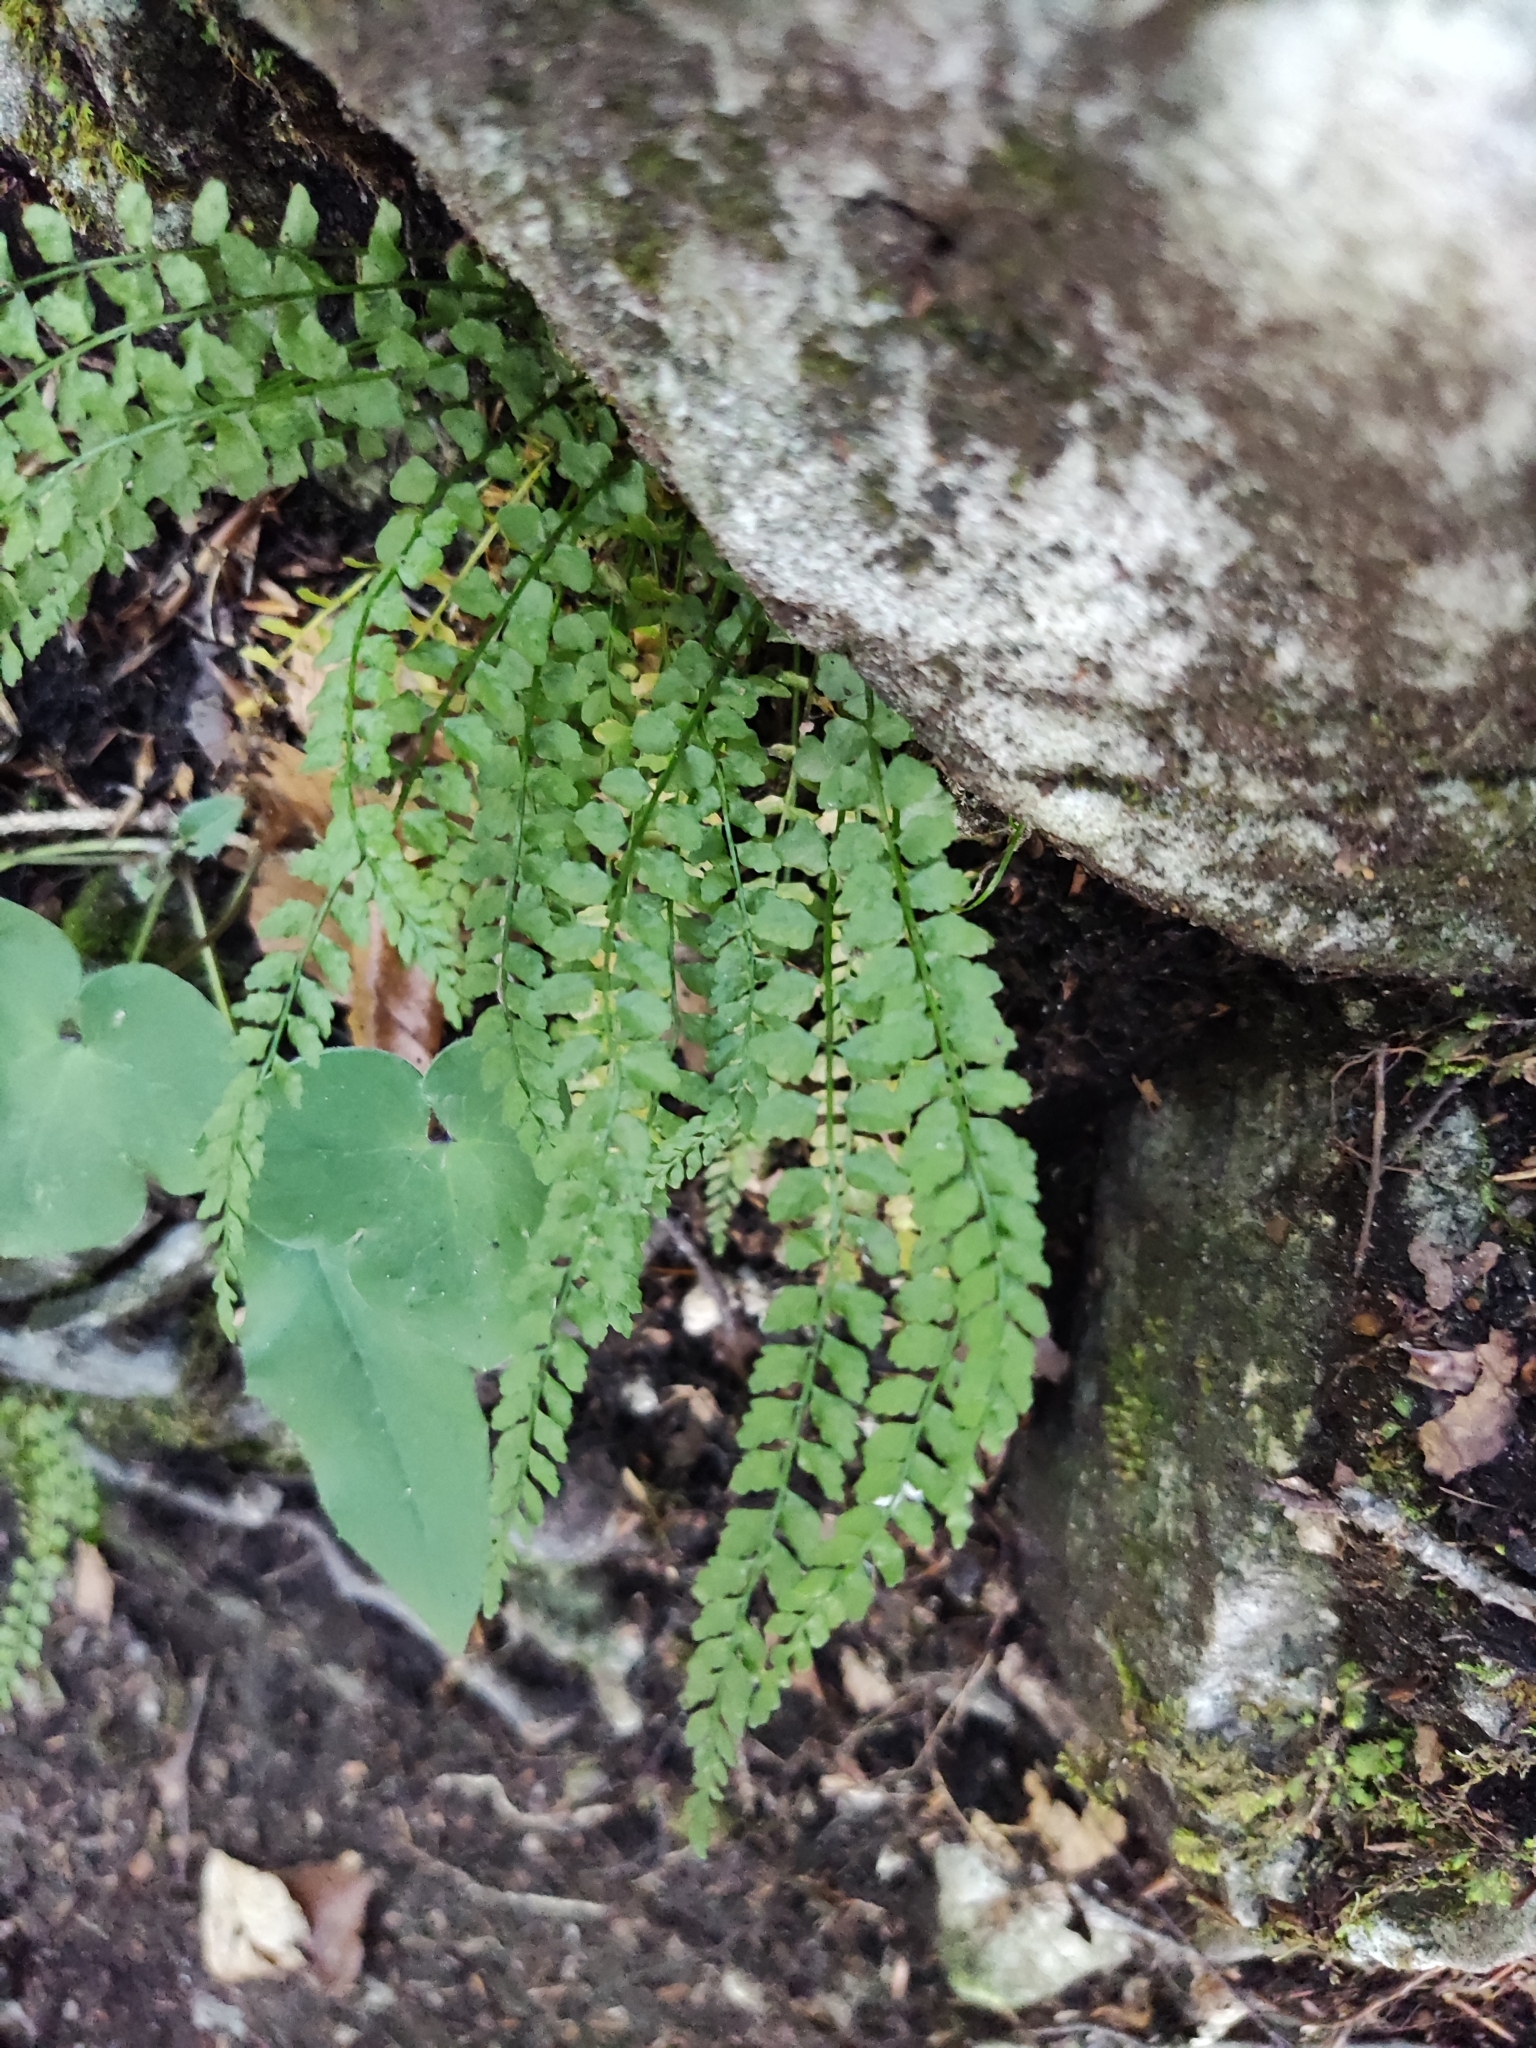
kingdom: Plantae
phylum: Tracheophyta
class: Polypodiopsida
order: Polypodiales
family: Aspleniaceae
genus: Asplenium
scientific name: Asplenium viride
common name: Green spleenwort
